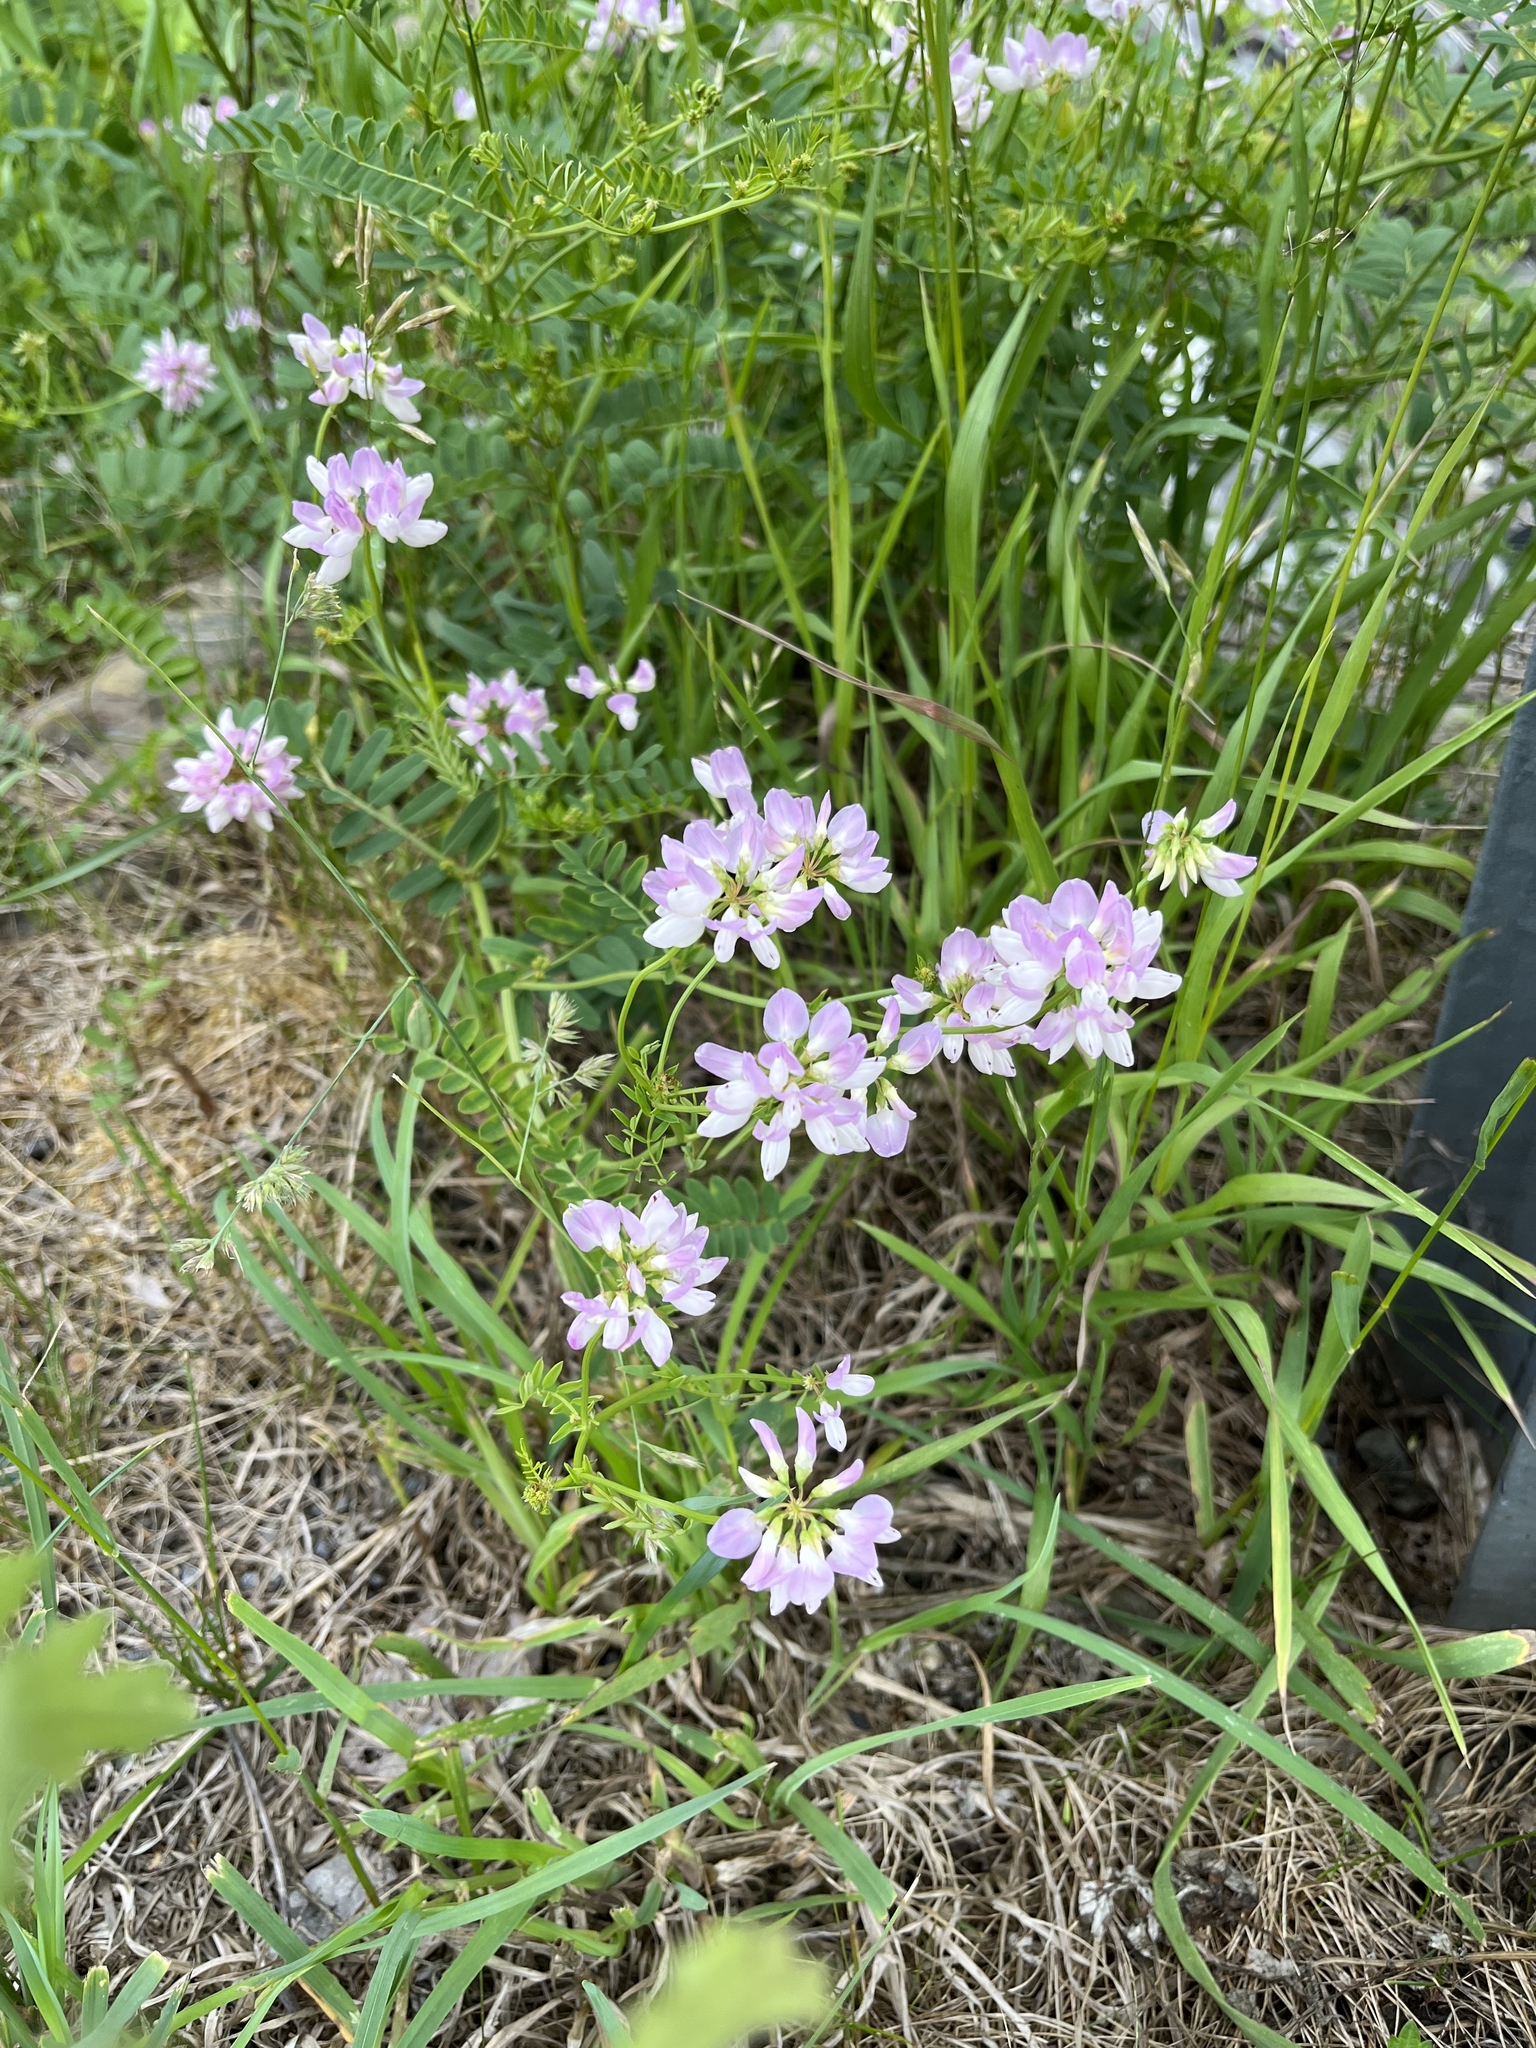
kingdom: Plantae
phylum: Tracheophyta
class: Magnoliopsida
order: Fabales
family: Fabaceae
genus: Coronilla
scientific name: Coronilla varia
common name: Crownvetch
